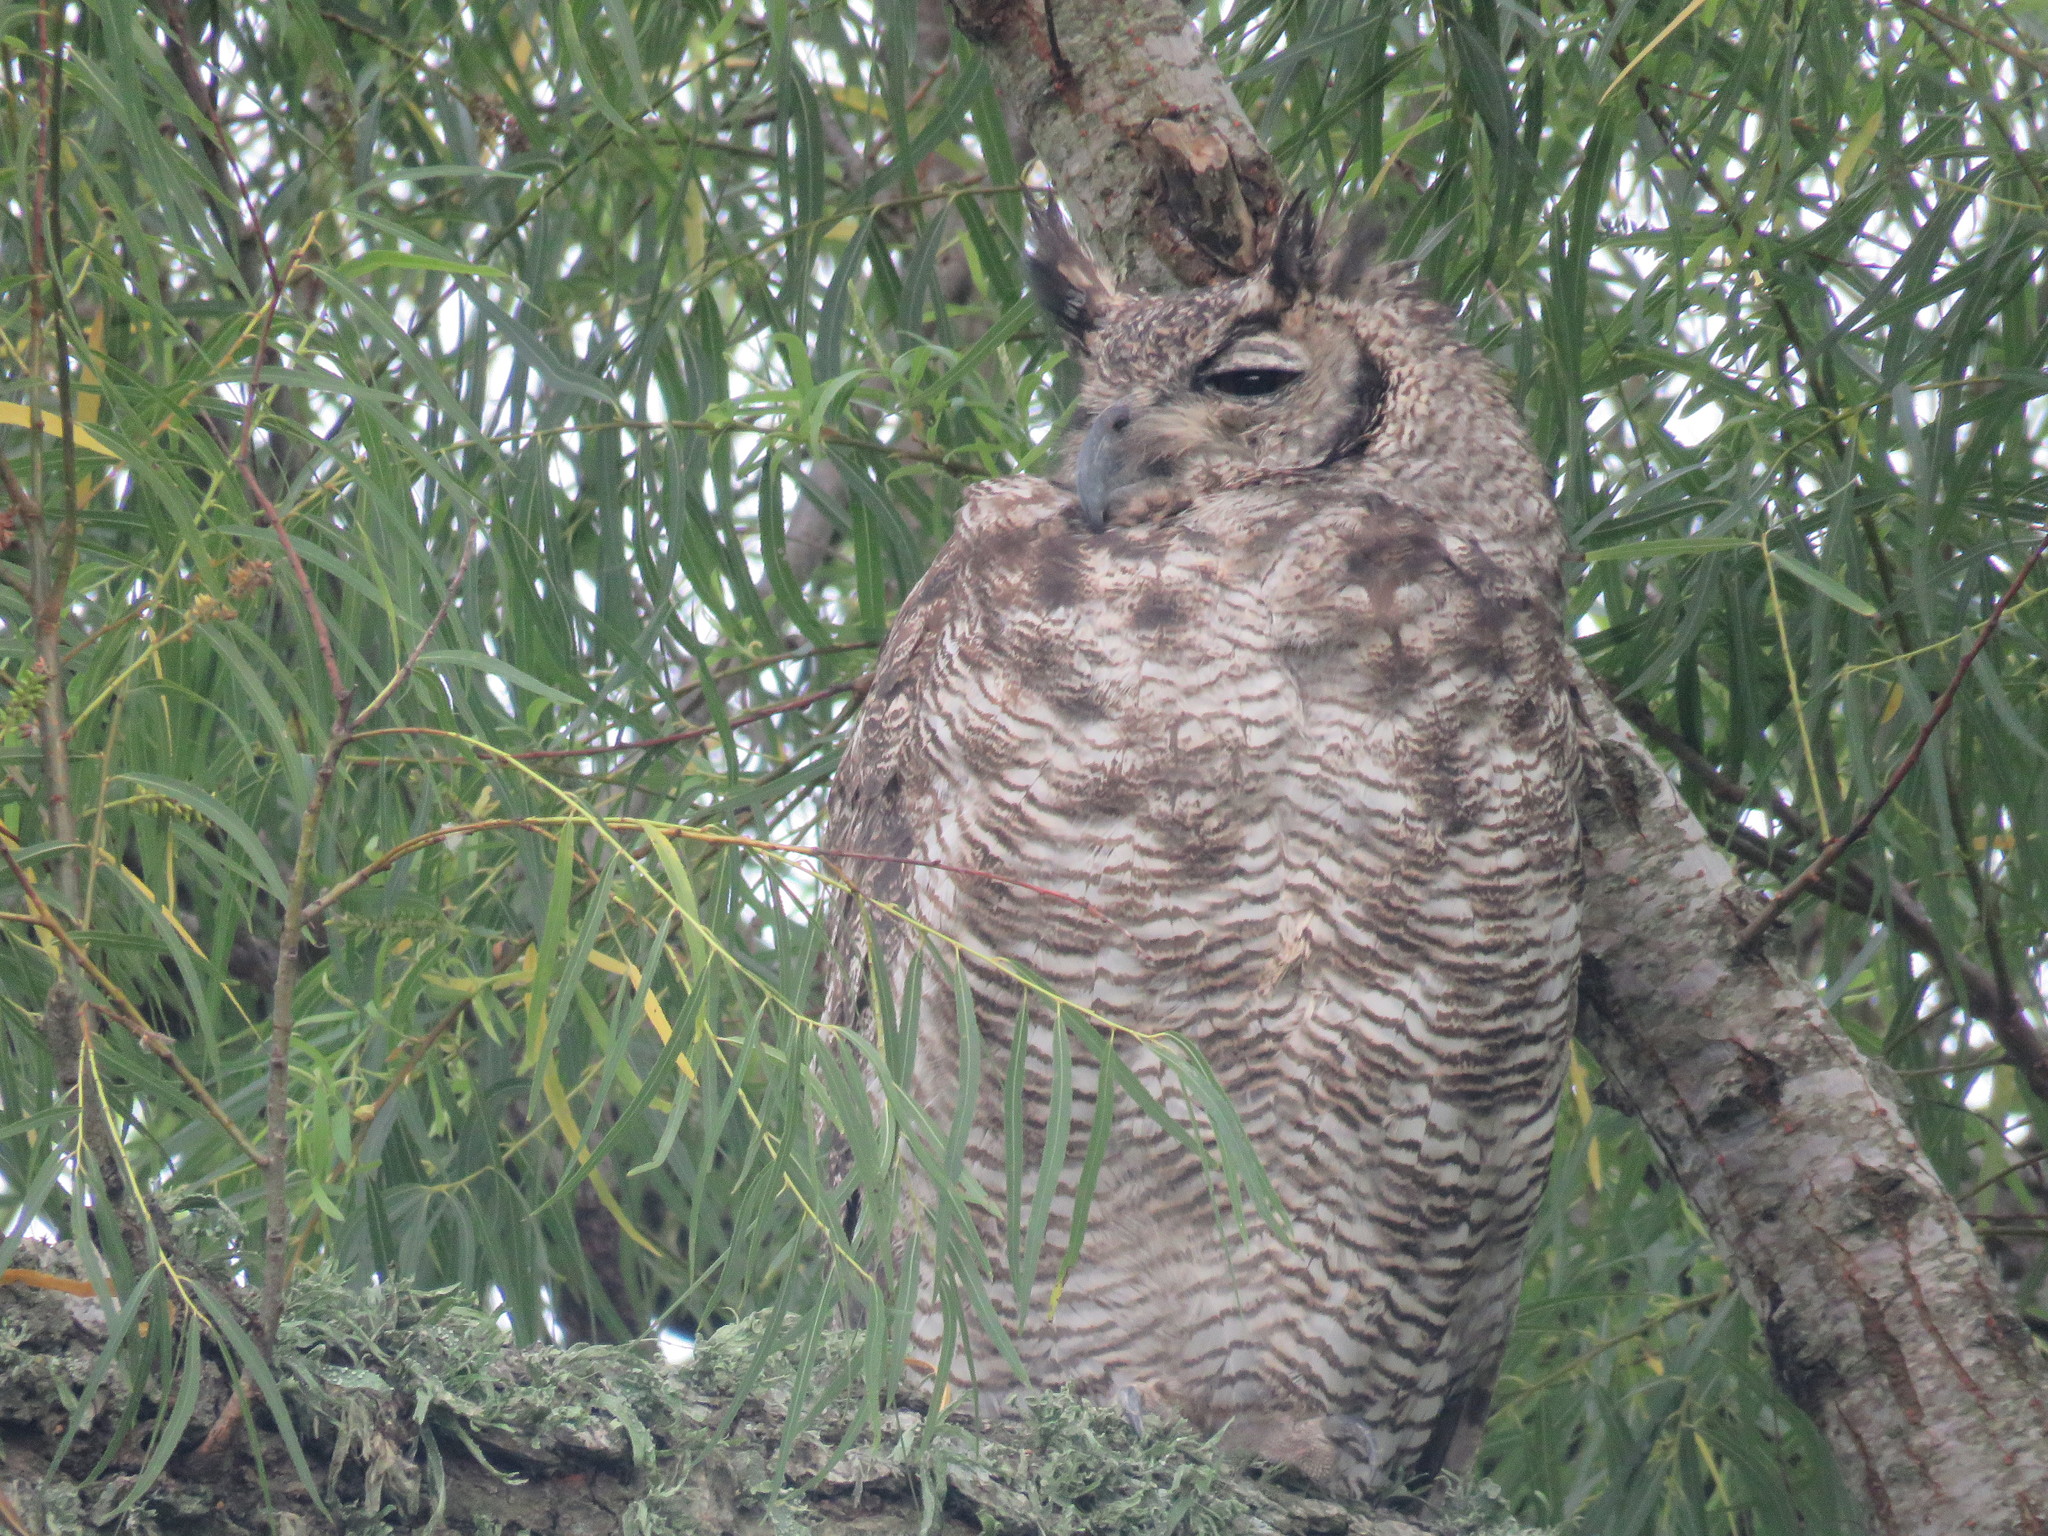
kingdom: Animalia
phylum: Chordata
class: Aves
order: Strigiformes
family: Strigidae
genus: Bubo
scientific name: Bubo virginianus
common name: Great horned owl
